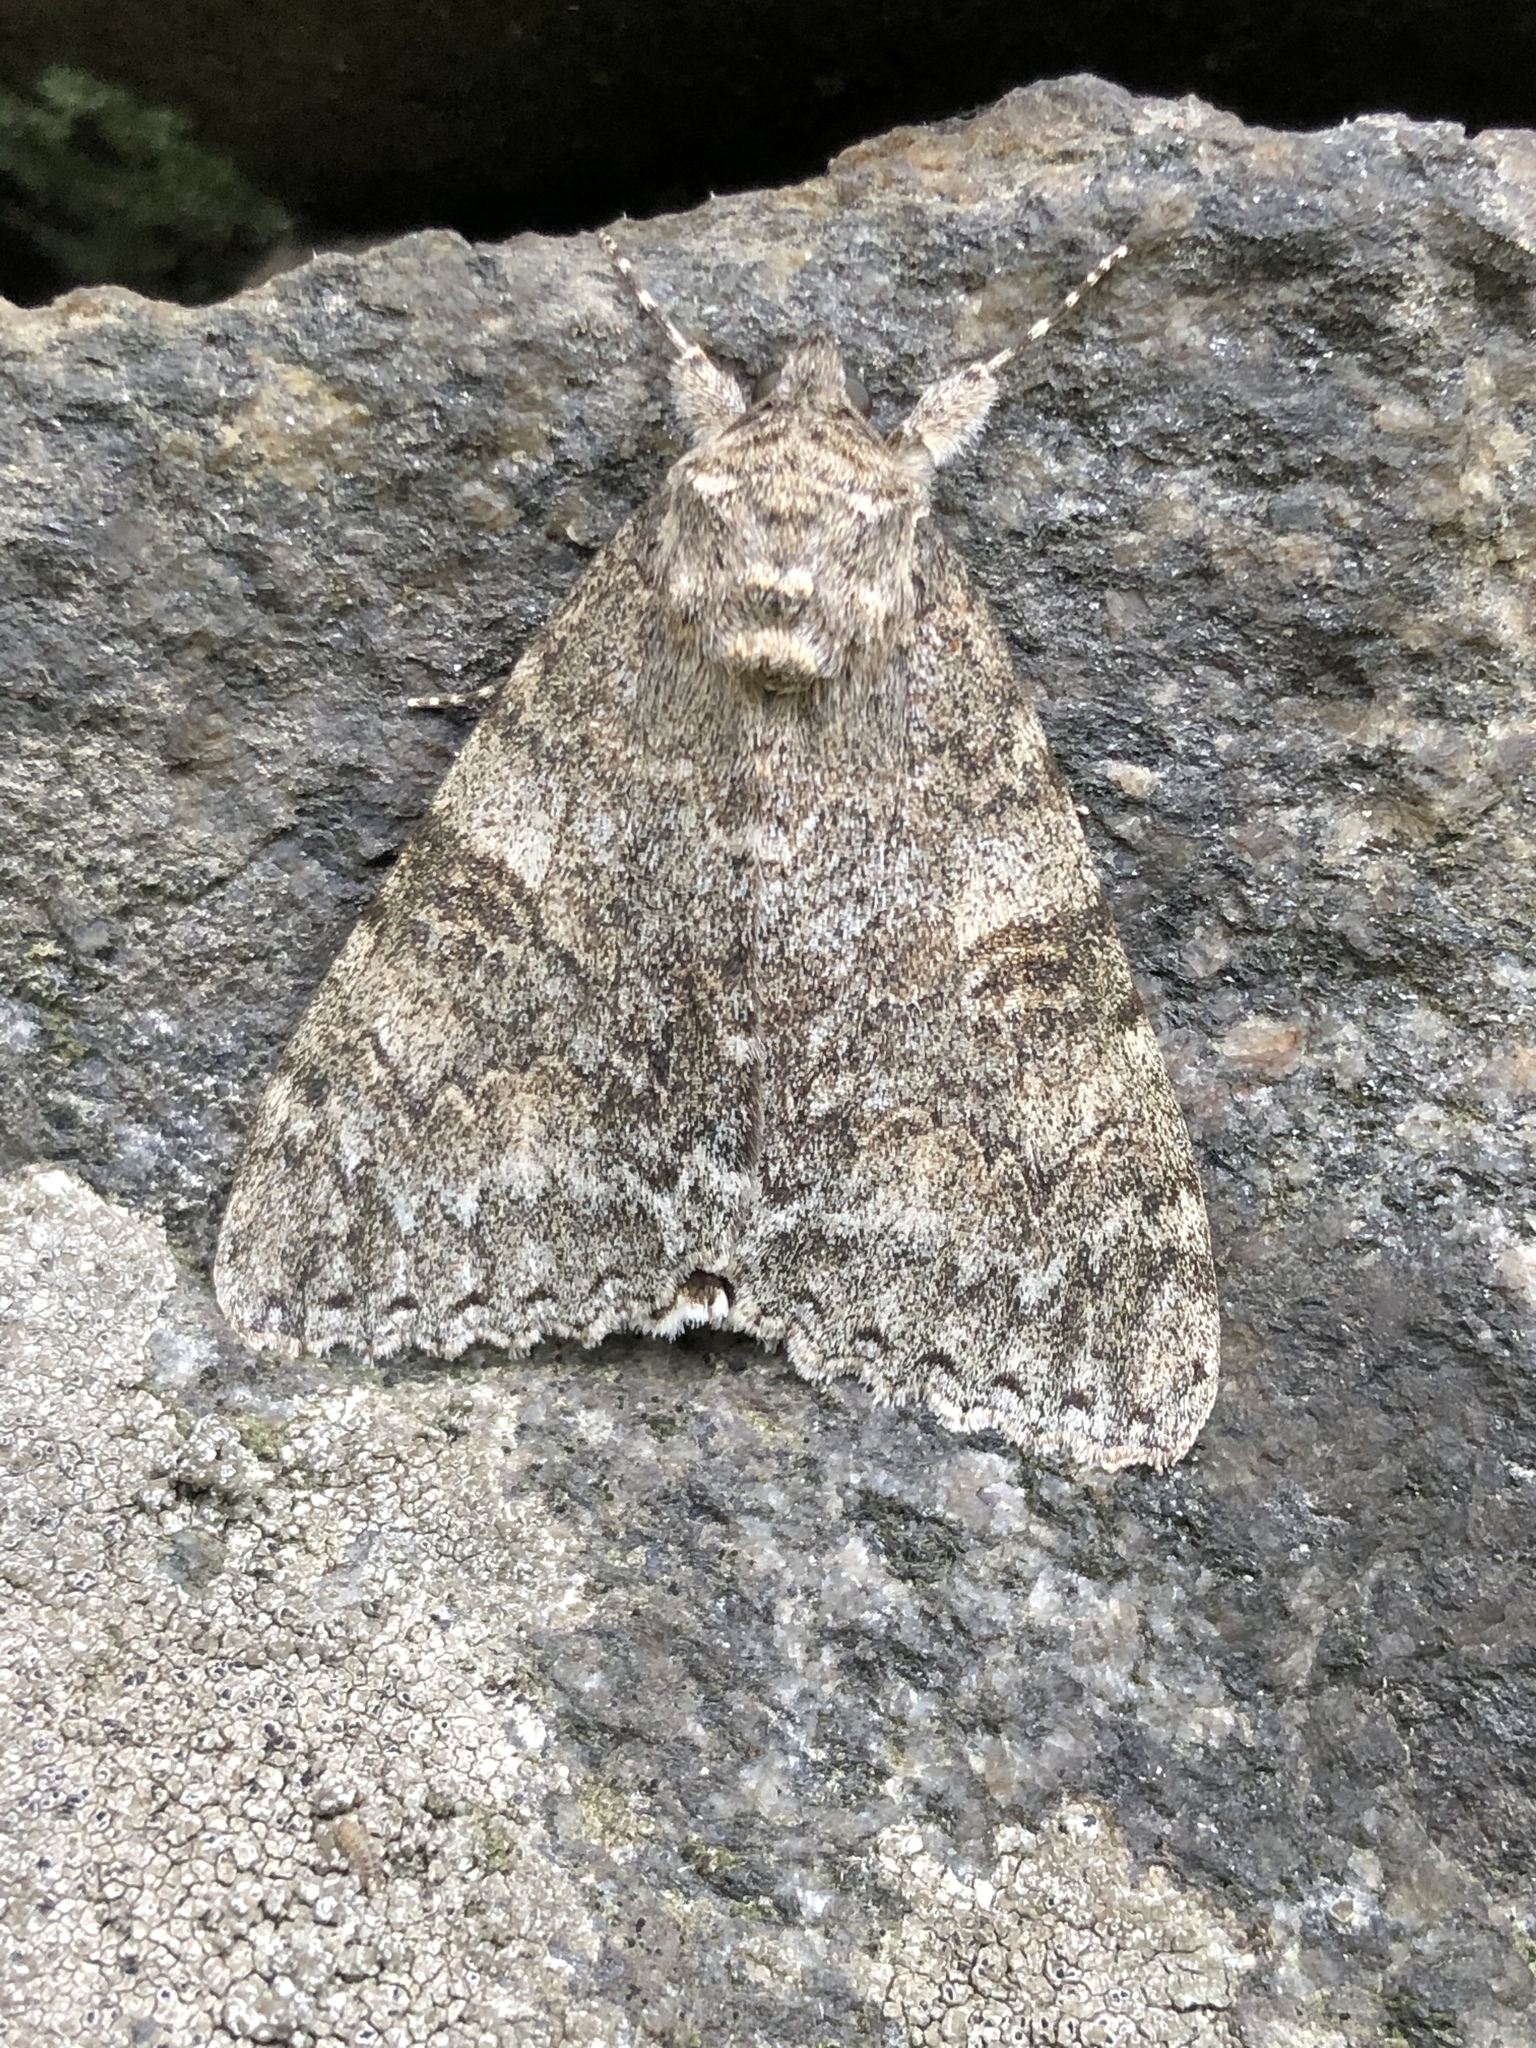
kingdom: Animalia
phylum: Arthropoda
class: Insecta
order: Lepidoptera
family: Erebidae
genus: Catocala
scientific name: Catocala nupta
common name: Red underwing
